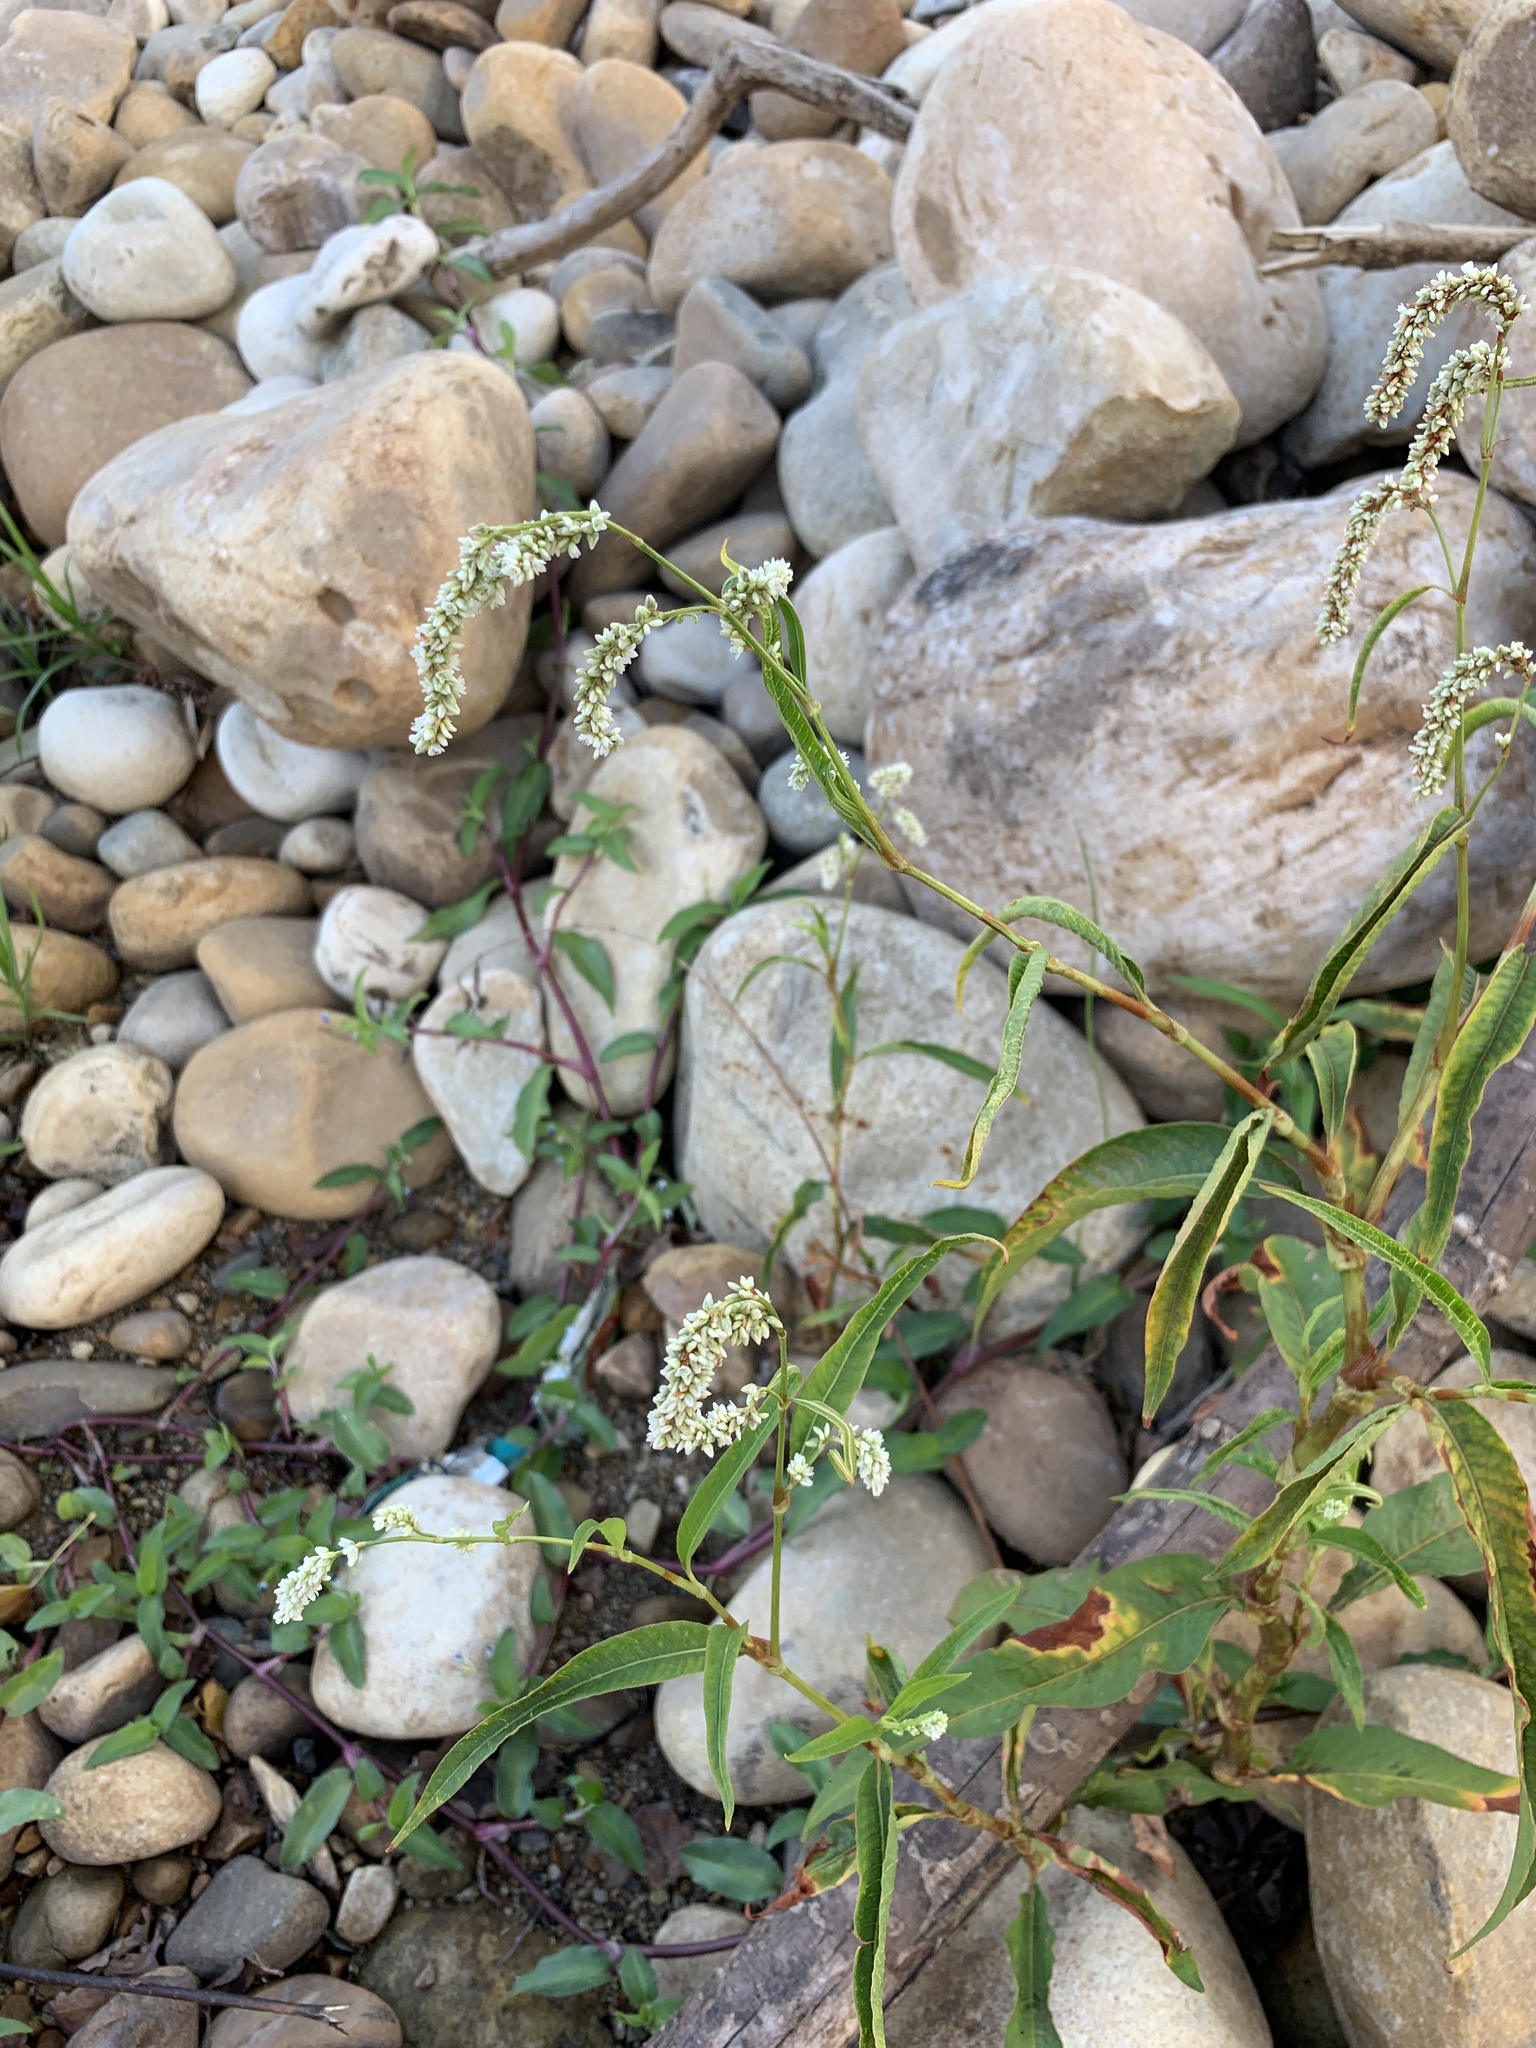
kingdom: Plantae
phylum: Tracheophyta
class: Magnoliopsida
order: Caryophyllales
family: Polygonaceae
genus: Persicaria
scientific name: Persicaria lapathifolia
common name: Curlytop knotweed
